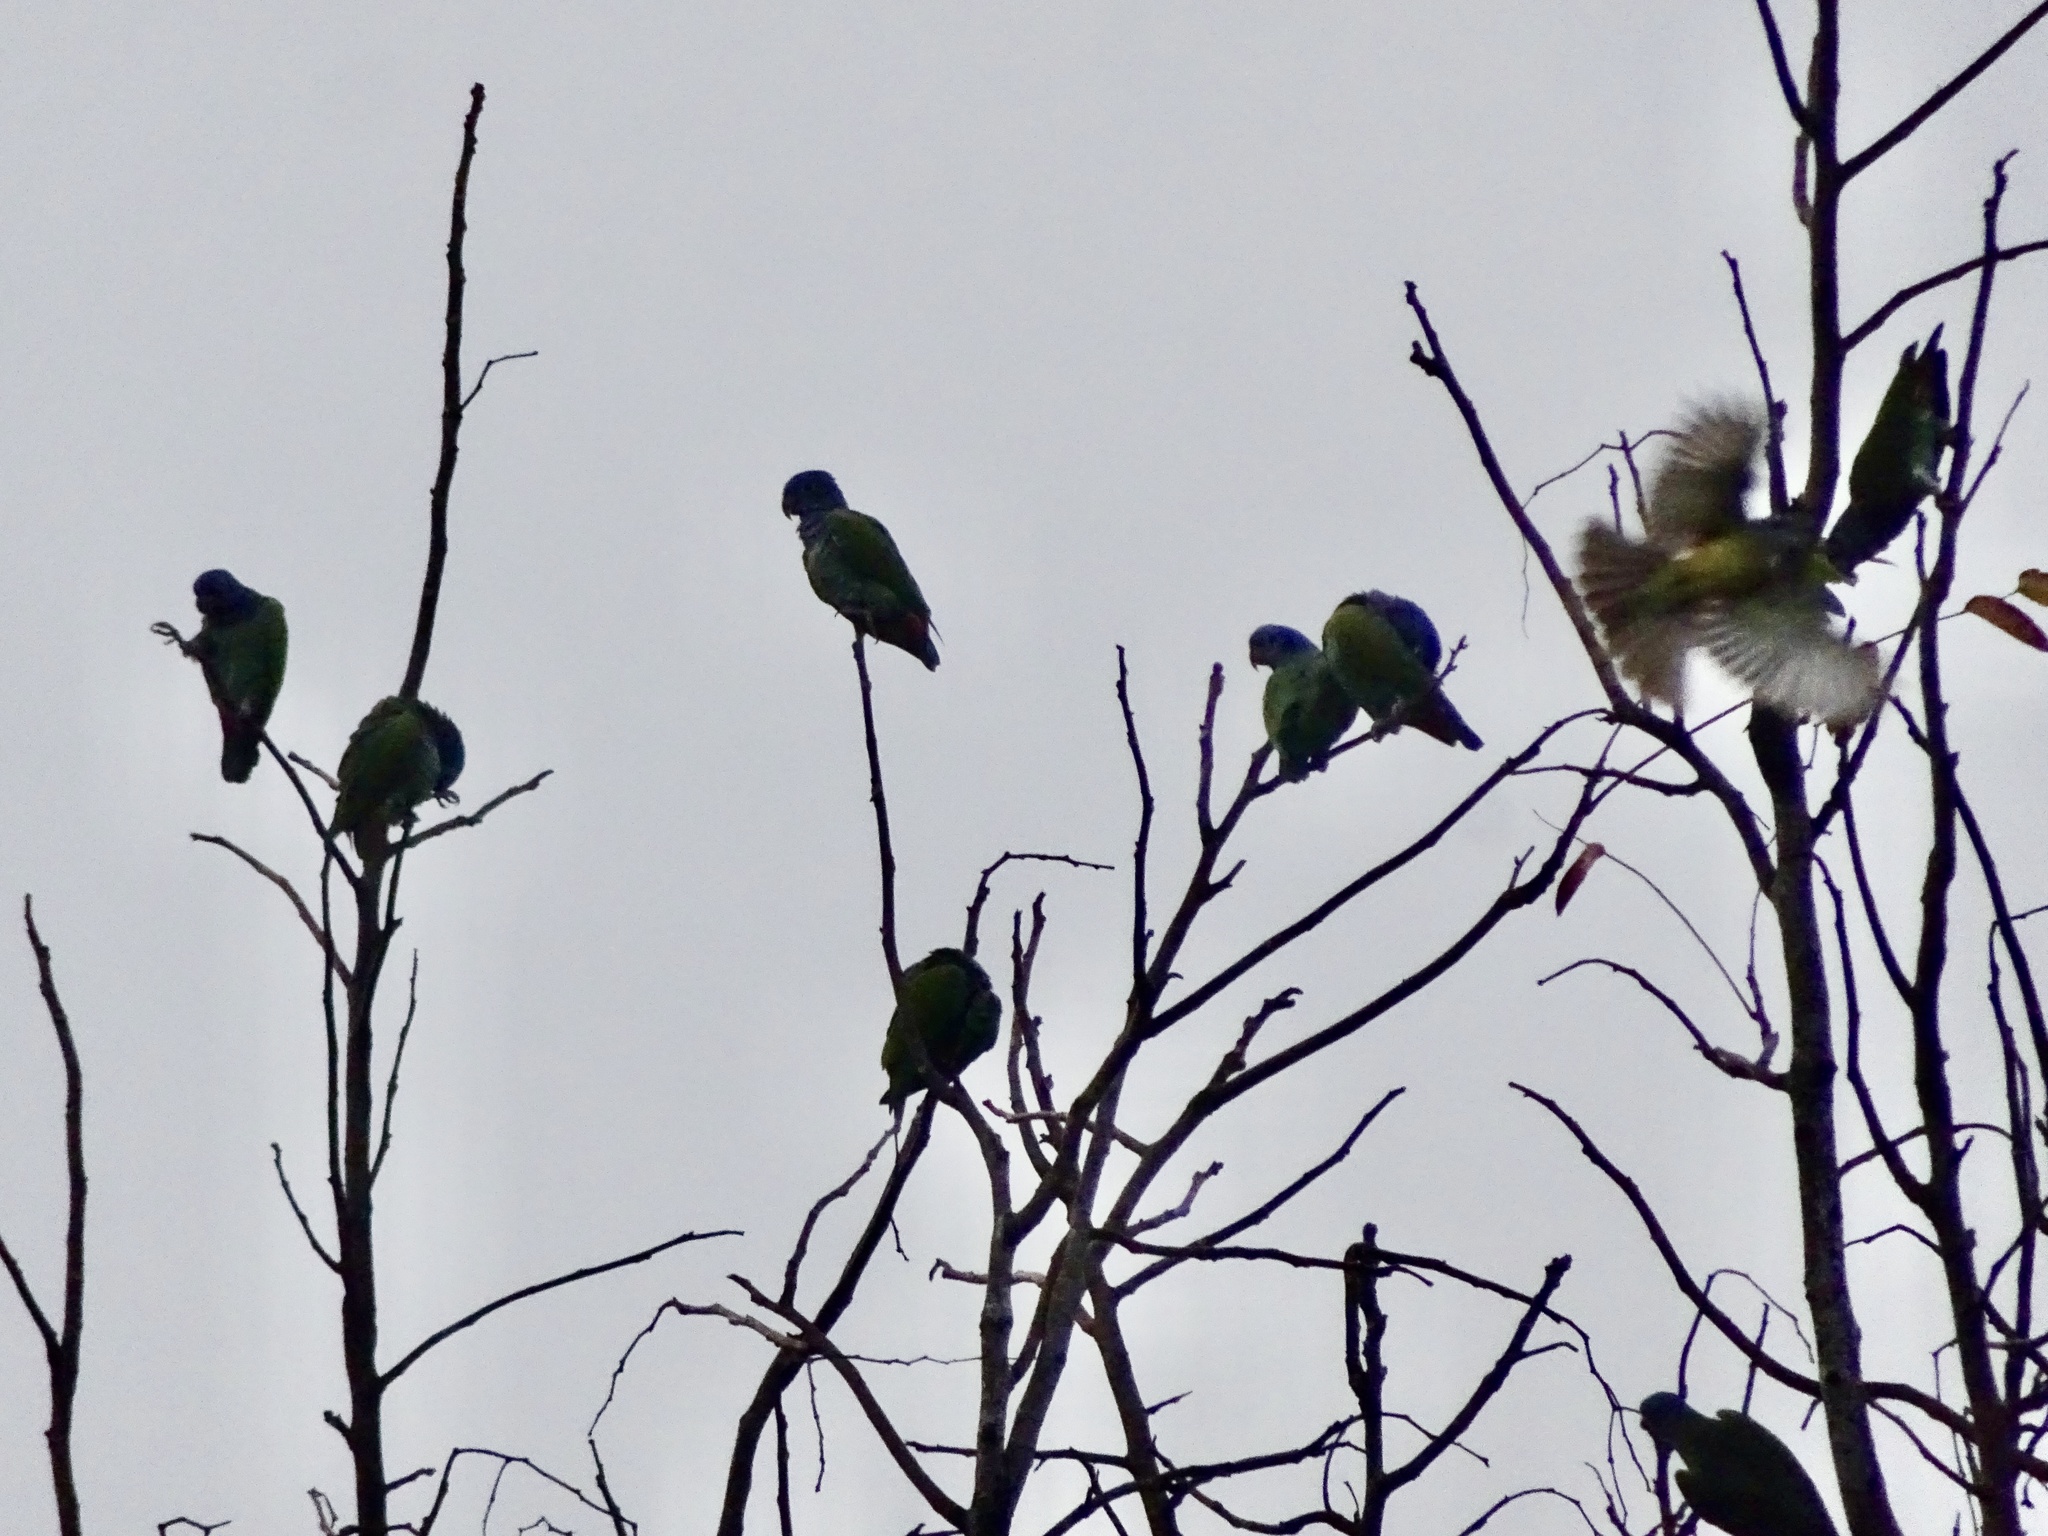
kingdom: Animalia
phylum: Chordata
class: Aves
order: Psittaciformes
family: Psittacidae
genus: Pionus
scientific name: Pionus menstruus
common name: Blue-headed parrot
